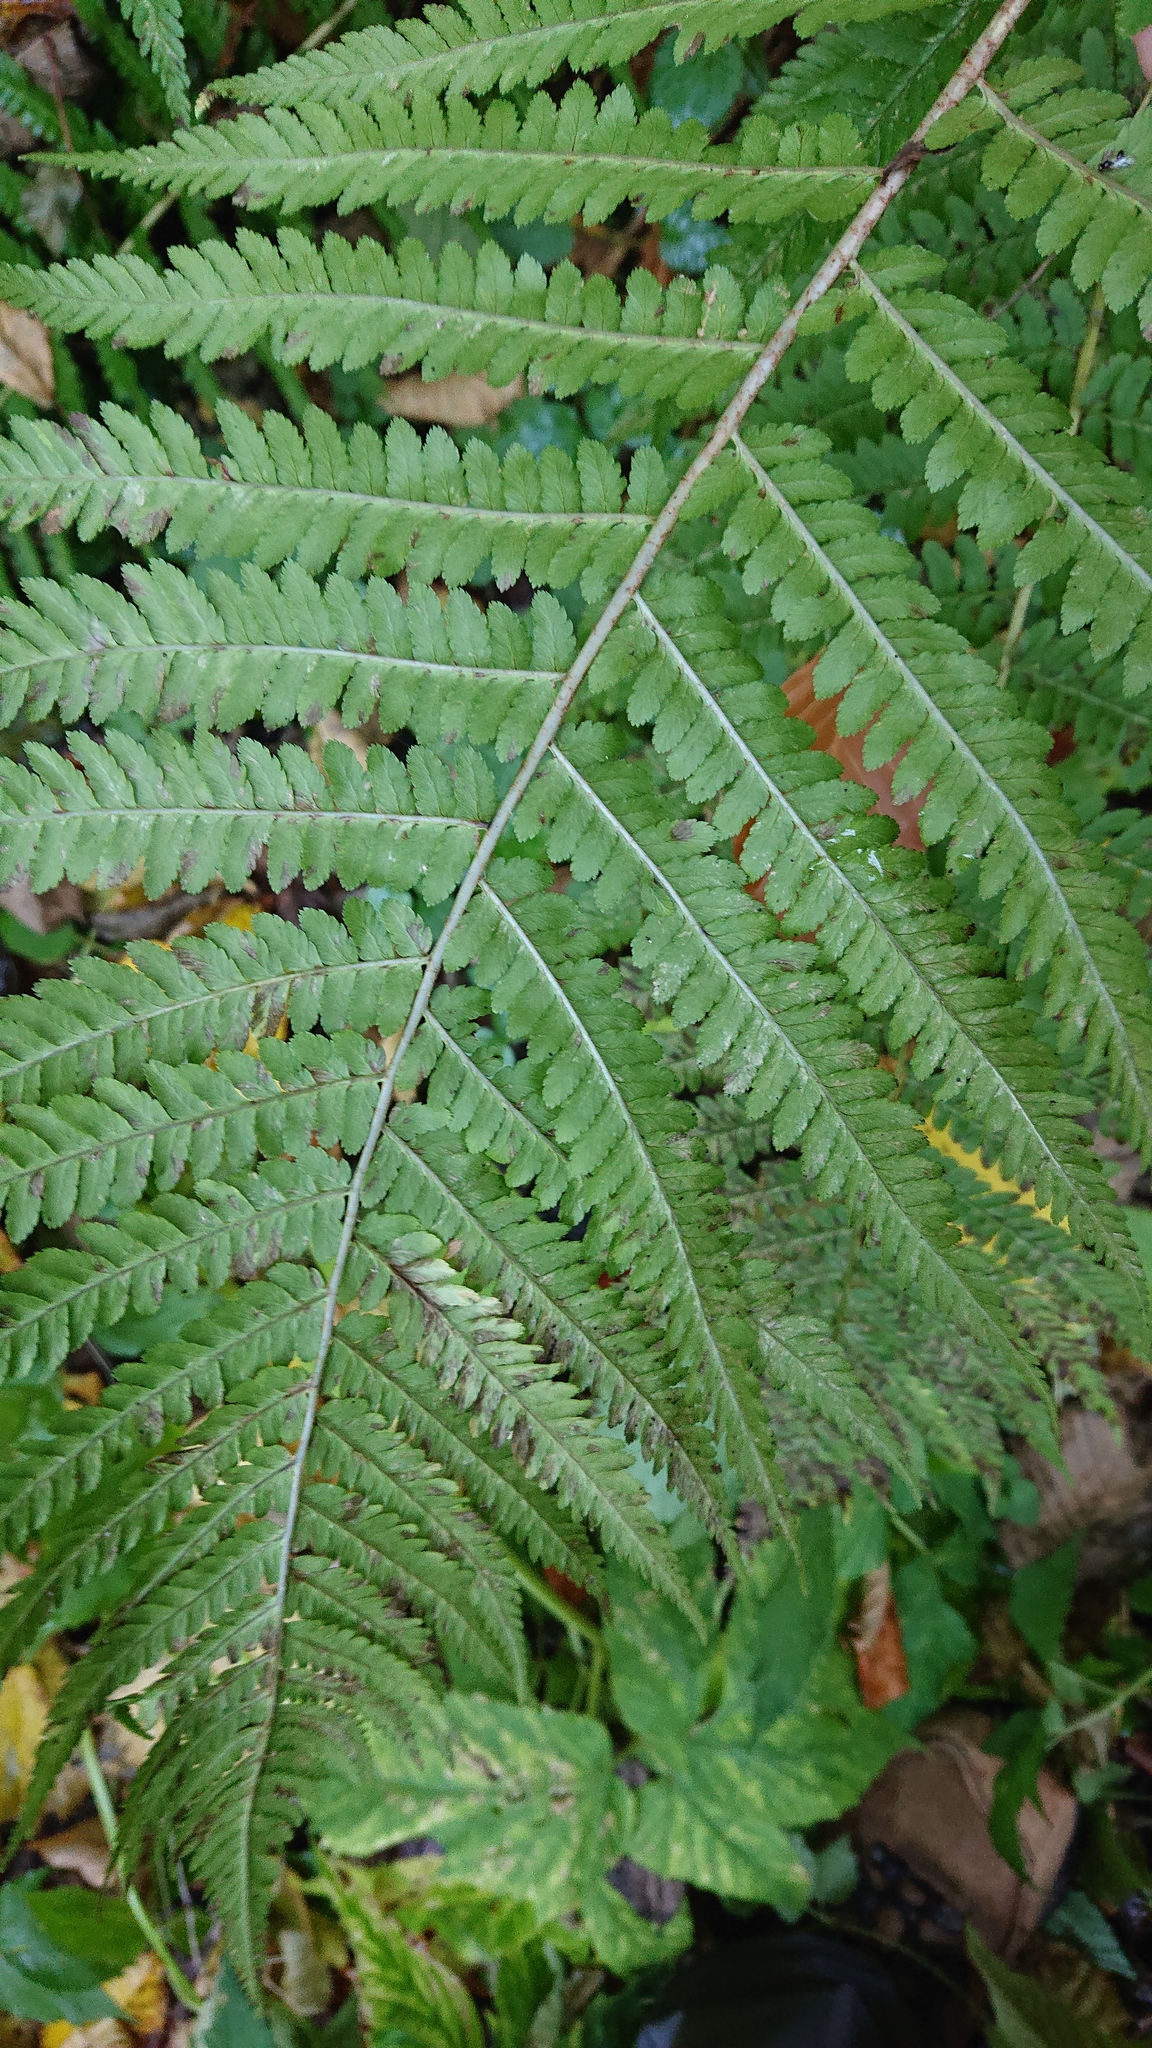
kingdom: Plantae
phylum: Tracheophyta
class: Polypodiopsida
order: Polypodiales
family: Dryopteridaceae
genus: Dryopteris
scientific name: Dryopteris filix-mas
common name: Male fern
